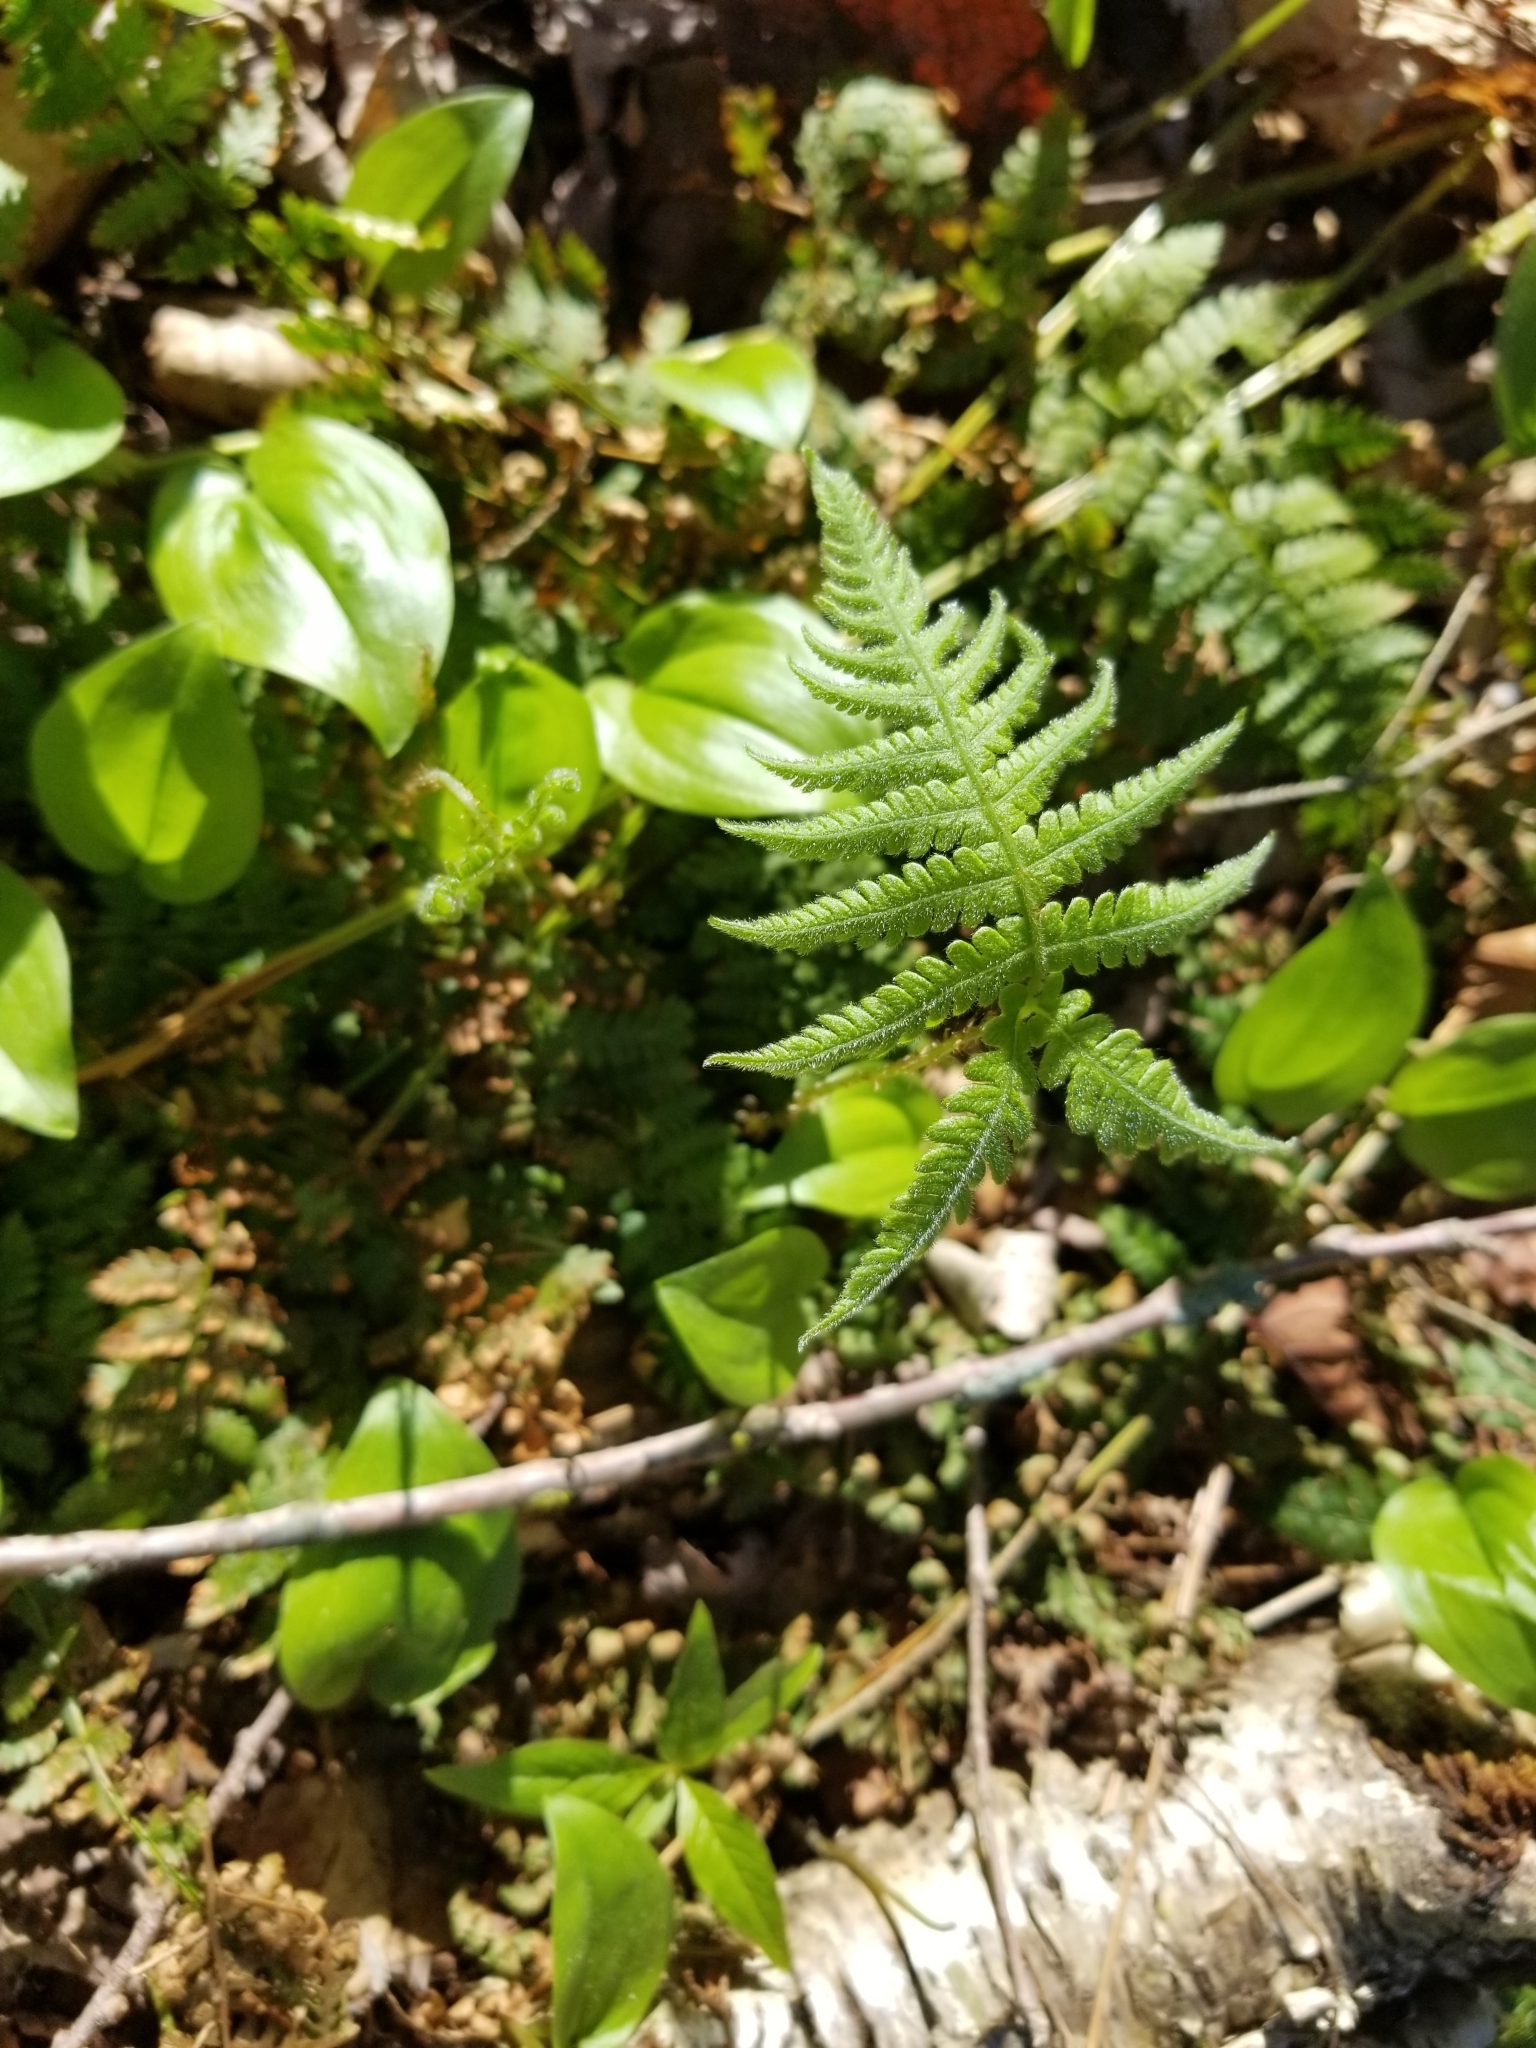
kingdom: Plantae
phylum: Tracheophyta
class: Polypodiopsida
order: Polypodiales
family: Thelypteridaceae
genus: Phegopteris
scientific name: Phegopteris connectilis
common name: Beech fern
